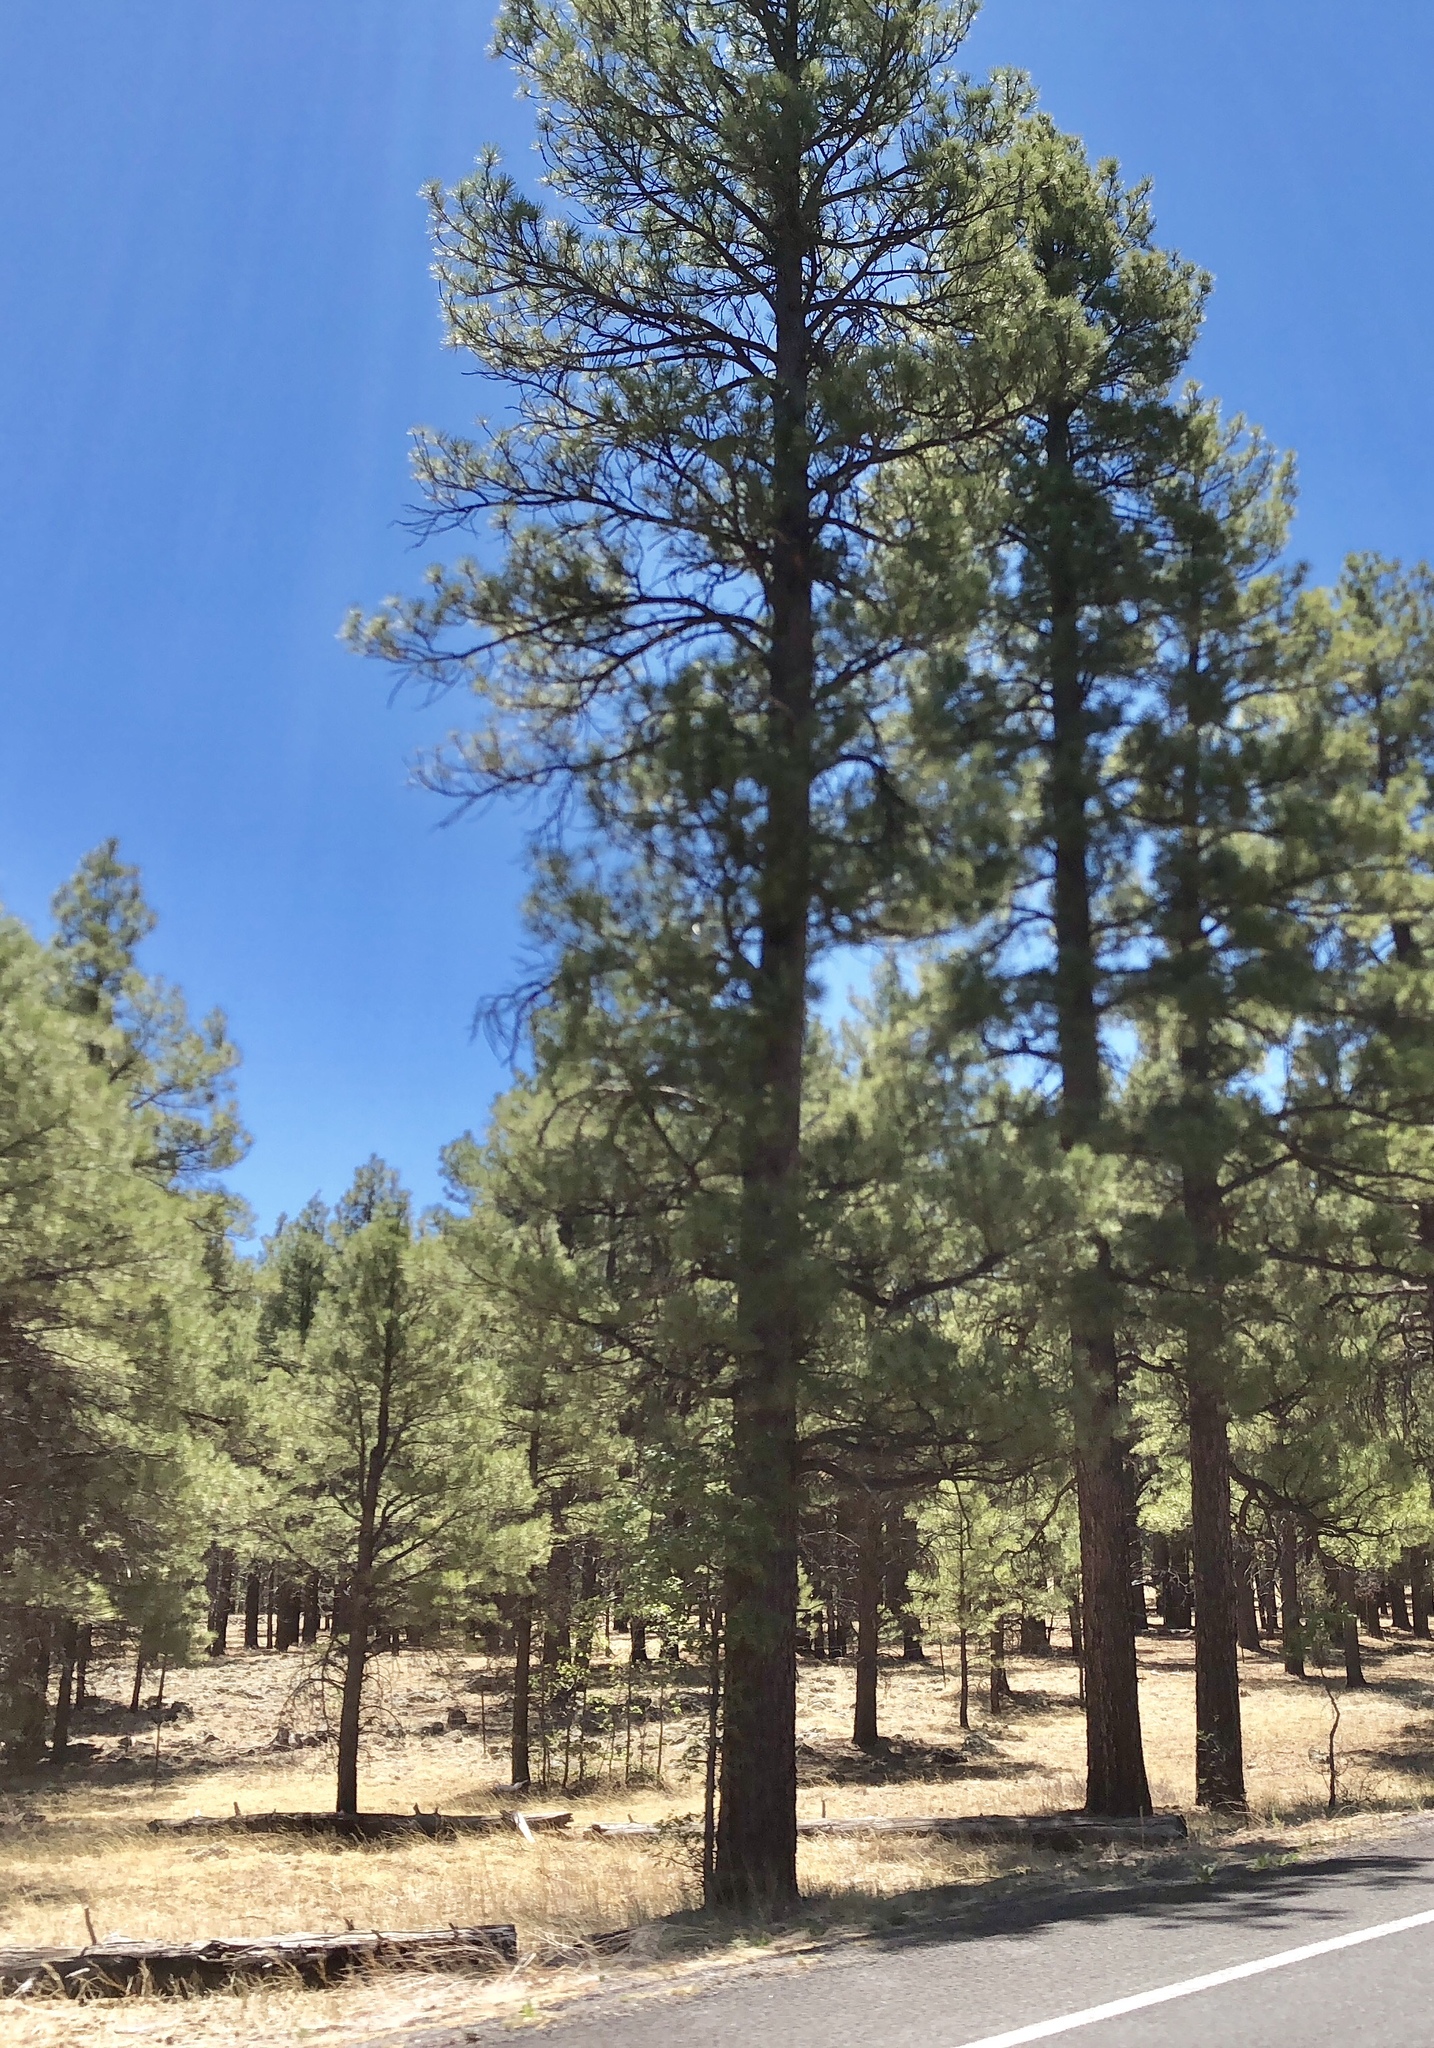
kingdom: Plantae
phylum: Tracheophyta
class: Pinopsida
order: Pinales
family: Pinaceae
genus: Pinus
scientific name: Pinus ponderosa
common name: Western yellow-pine
